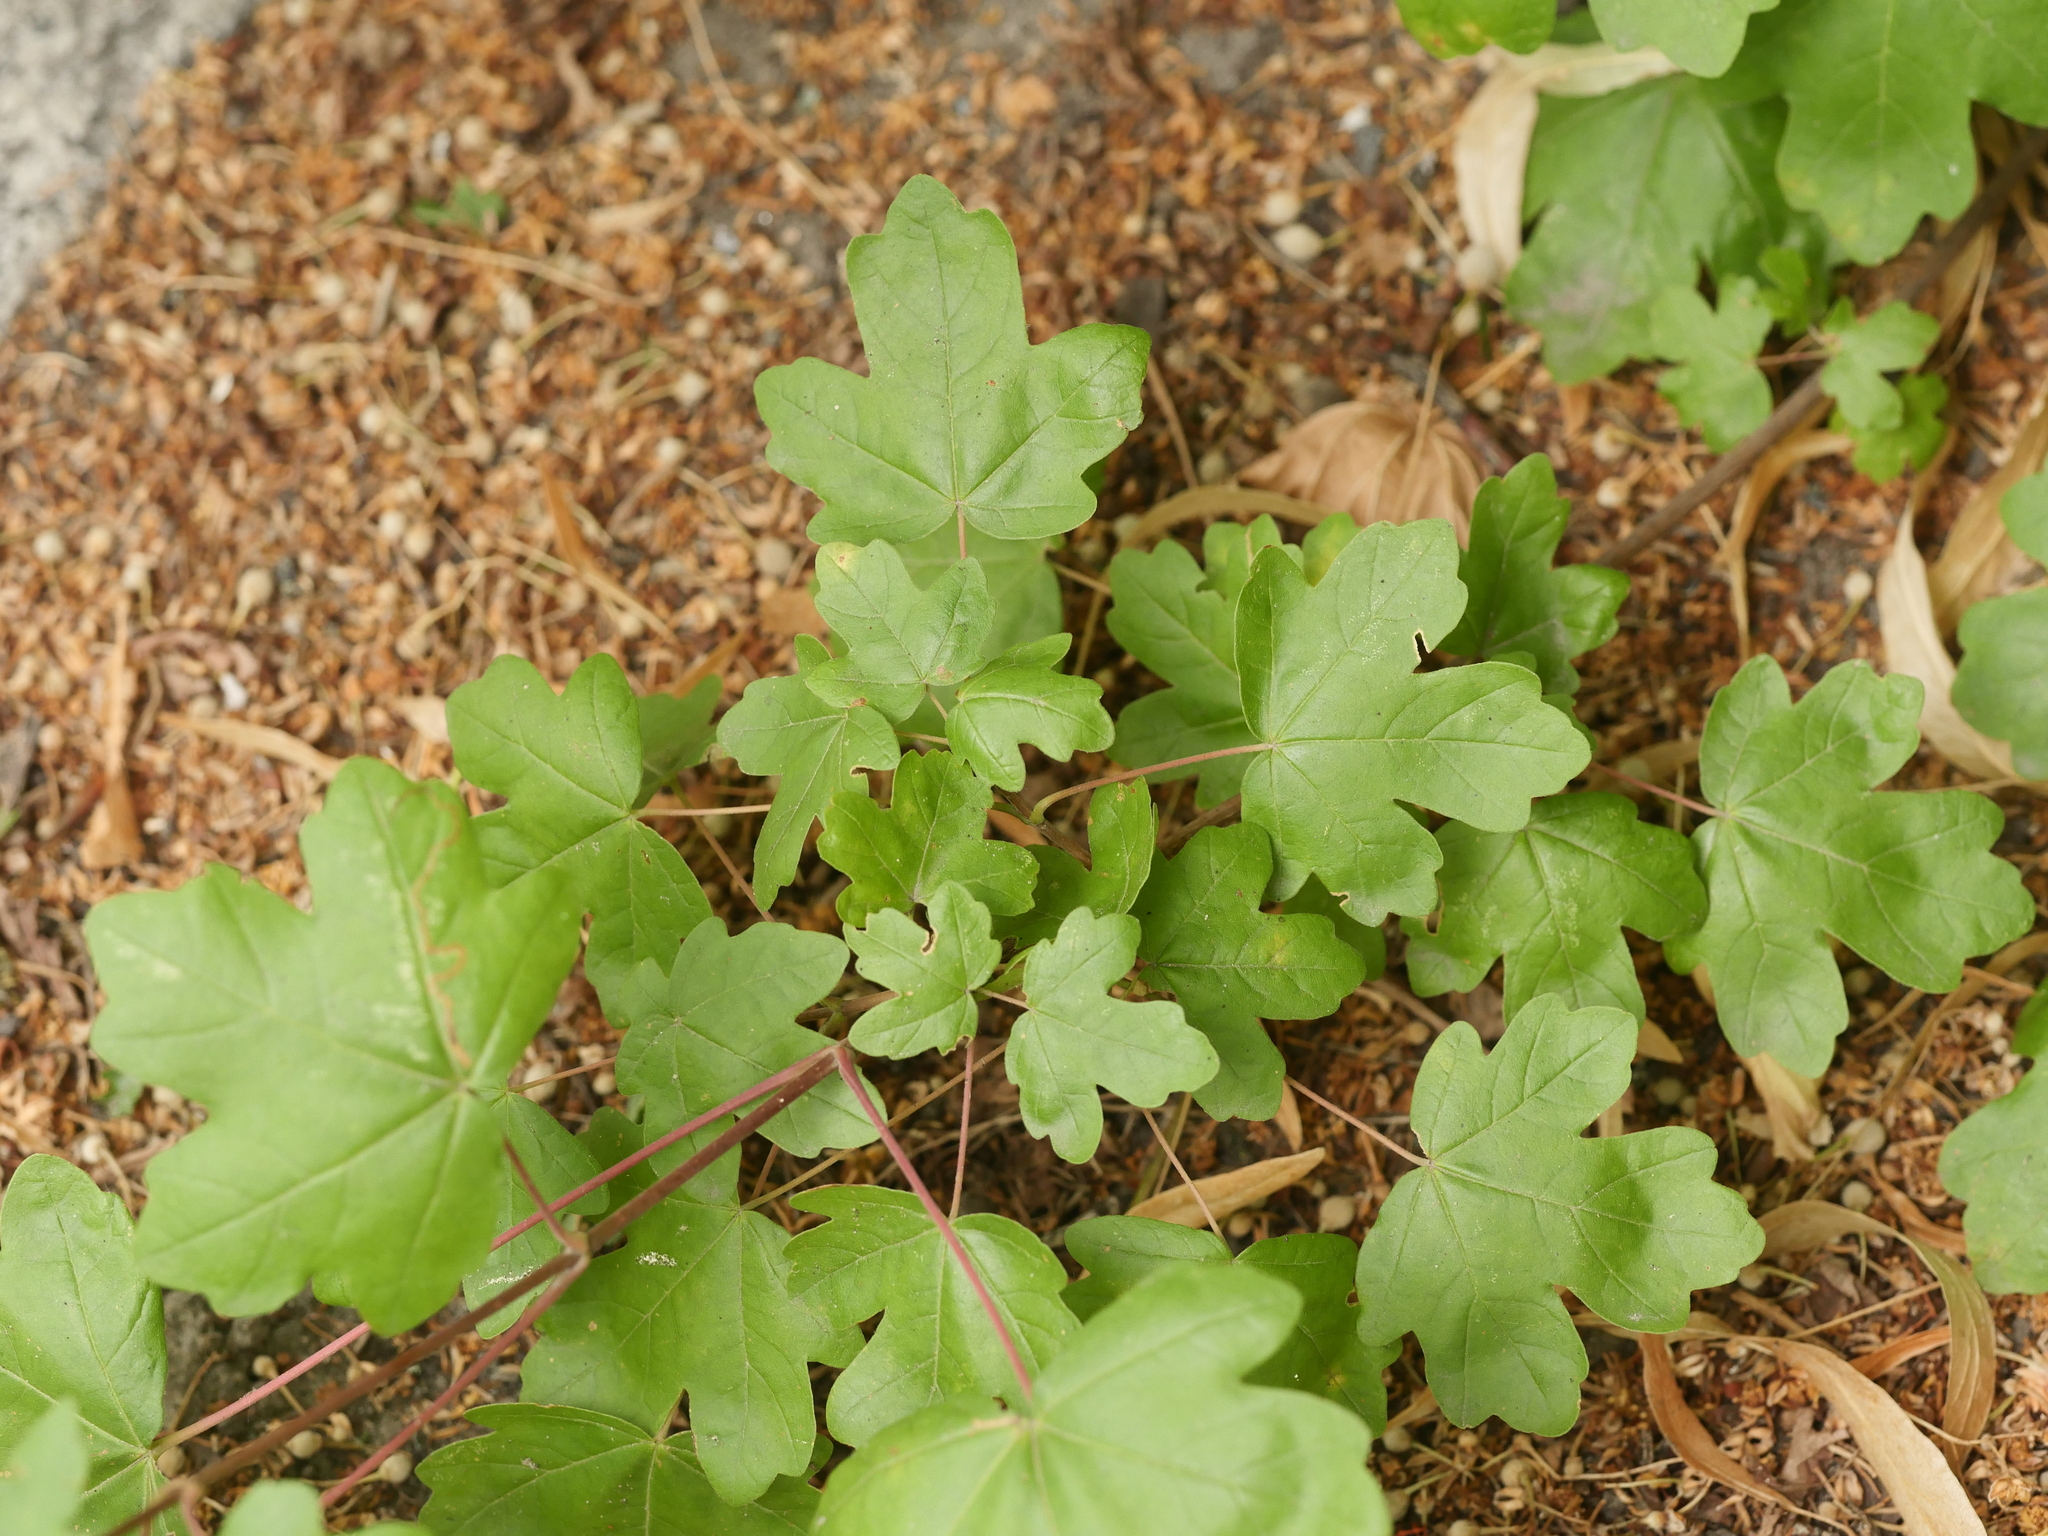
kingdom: Plantae
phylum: Tracheophyta
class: Magnoliopsida
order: Sapindales
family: Sapindaceae
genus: Acer
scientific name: Acer campestre
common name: Field maple
